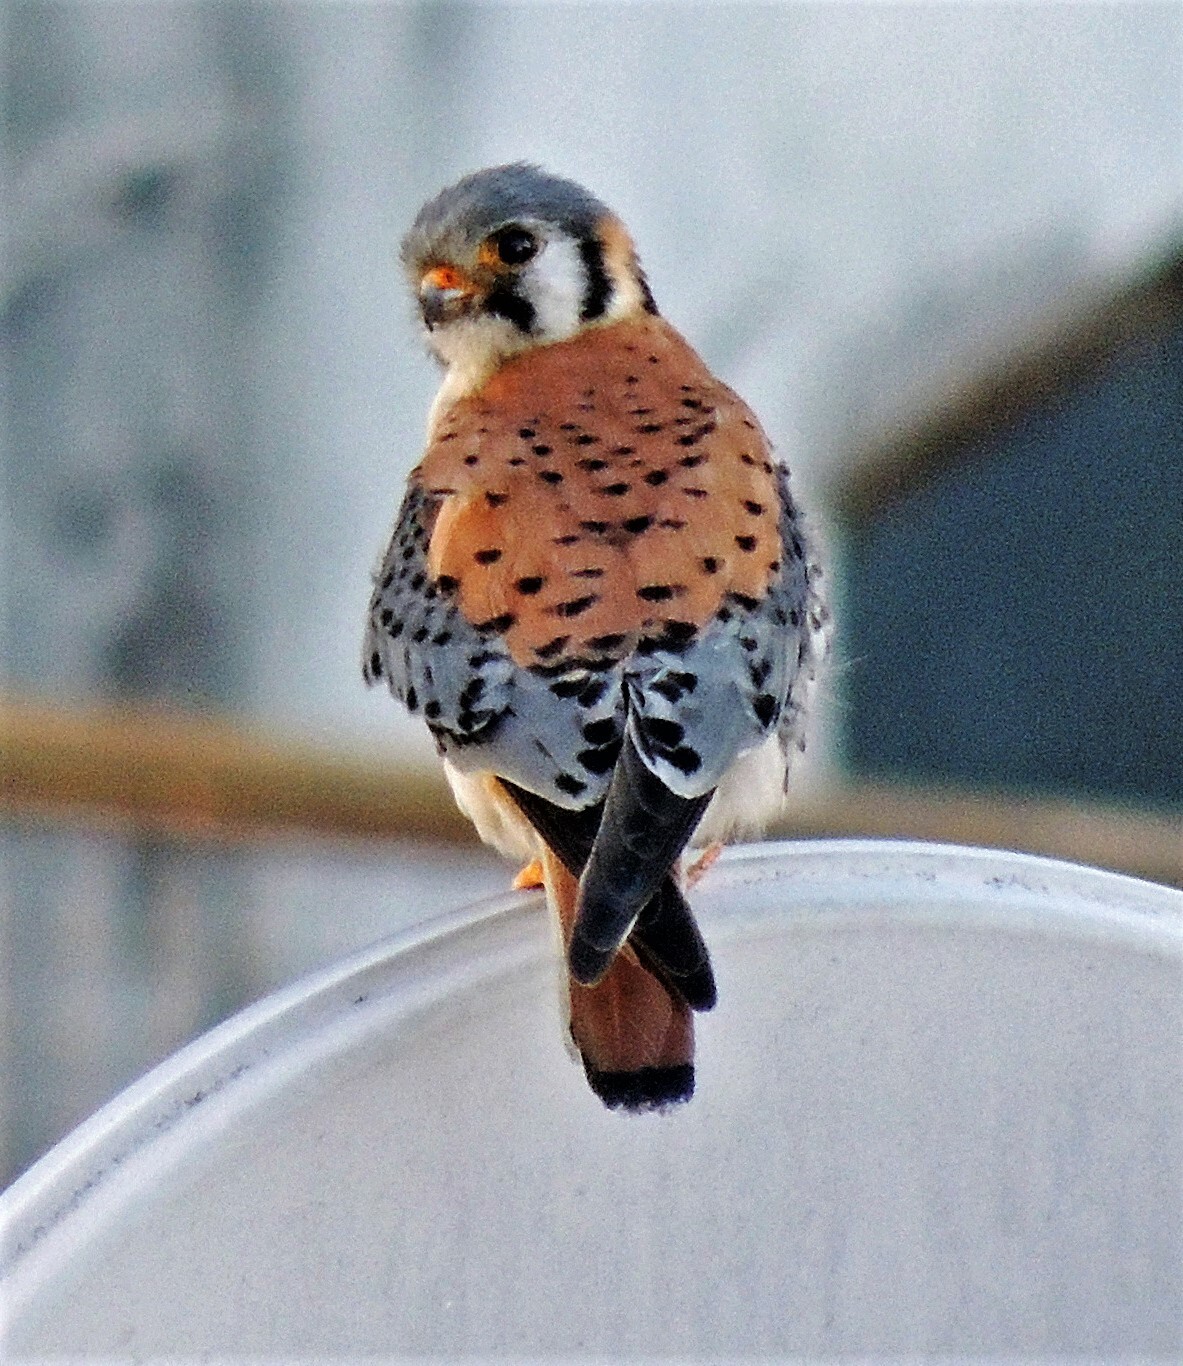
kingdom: Animalia
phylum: Chordata
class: Aves
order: Falconiformes
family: Falconidae
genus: Falco
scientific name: Falco sparverius
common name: American kestrel
